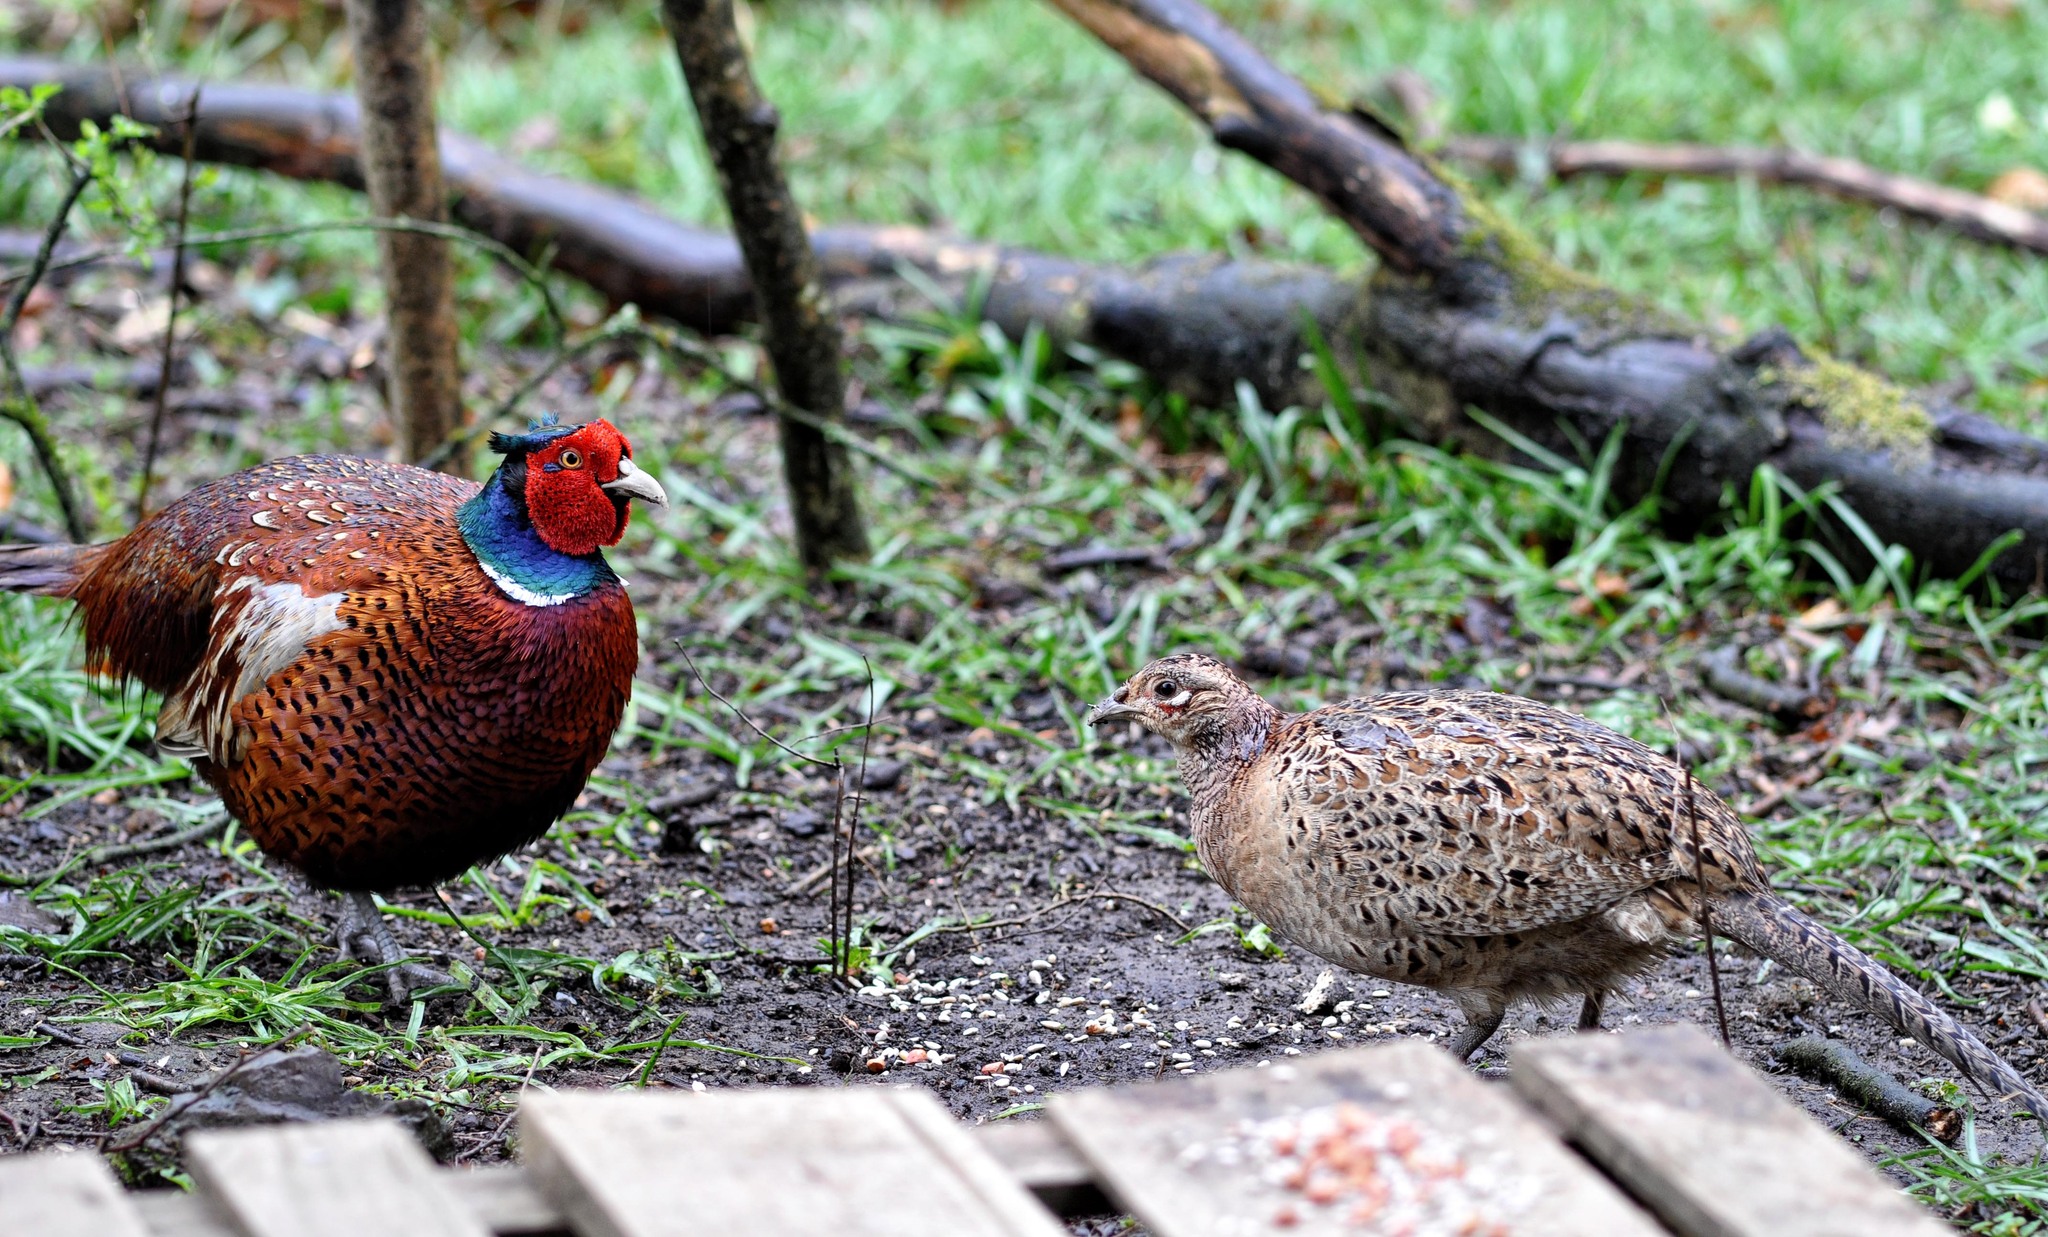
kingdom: Animalia
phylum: Chordata
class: Aves
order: Galliformes
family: Phasianidae
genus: Phasianus
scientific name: Phasianus colchicus
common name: Common pheasant
